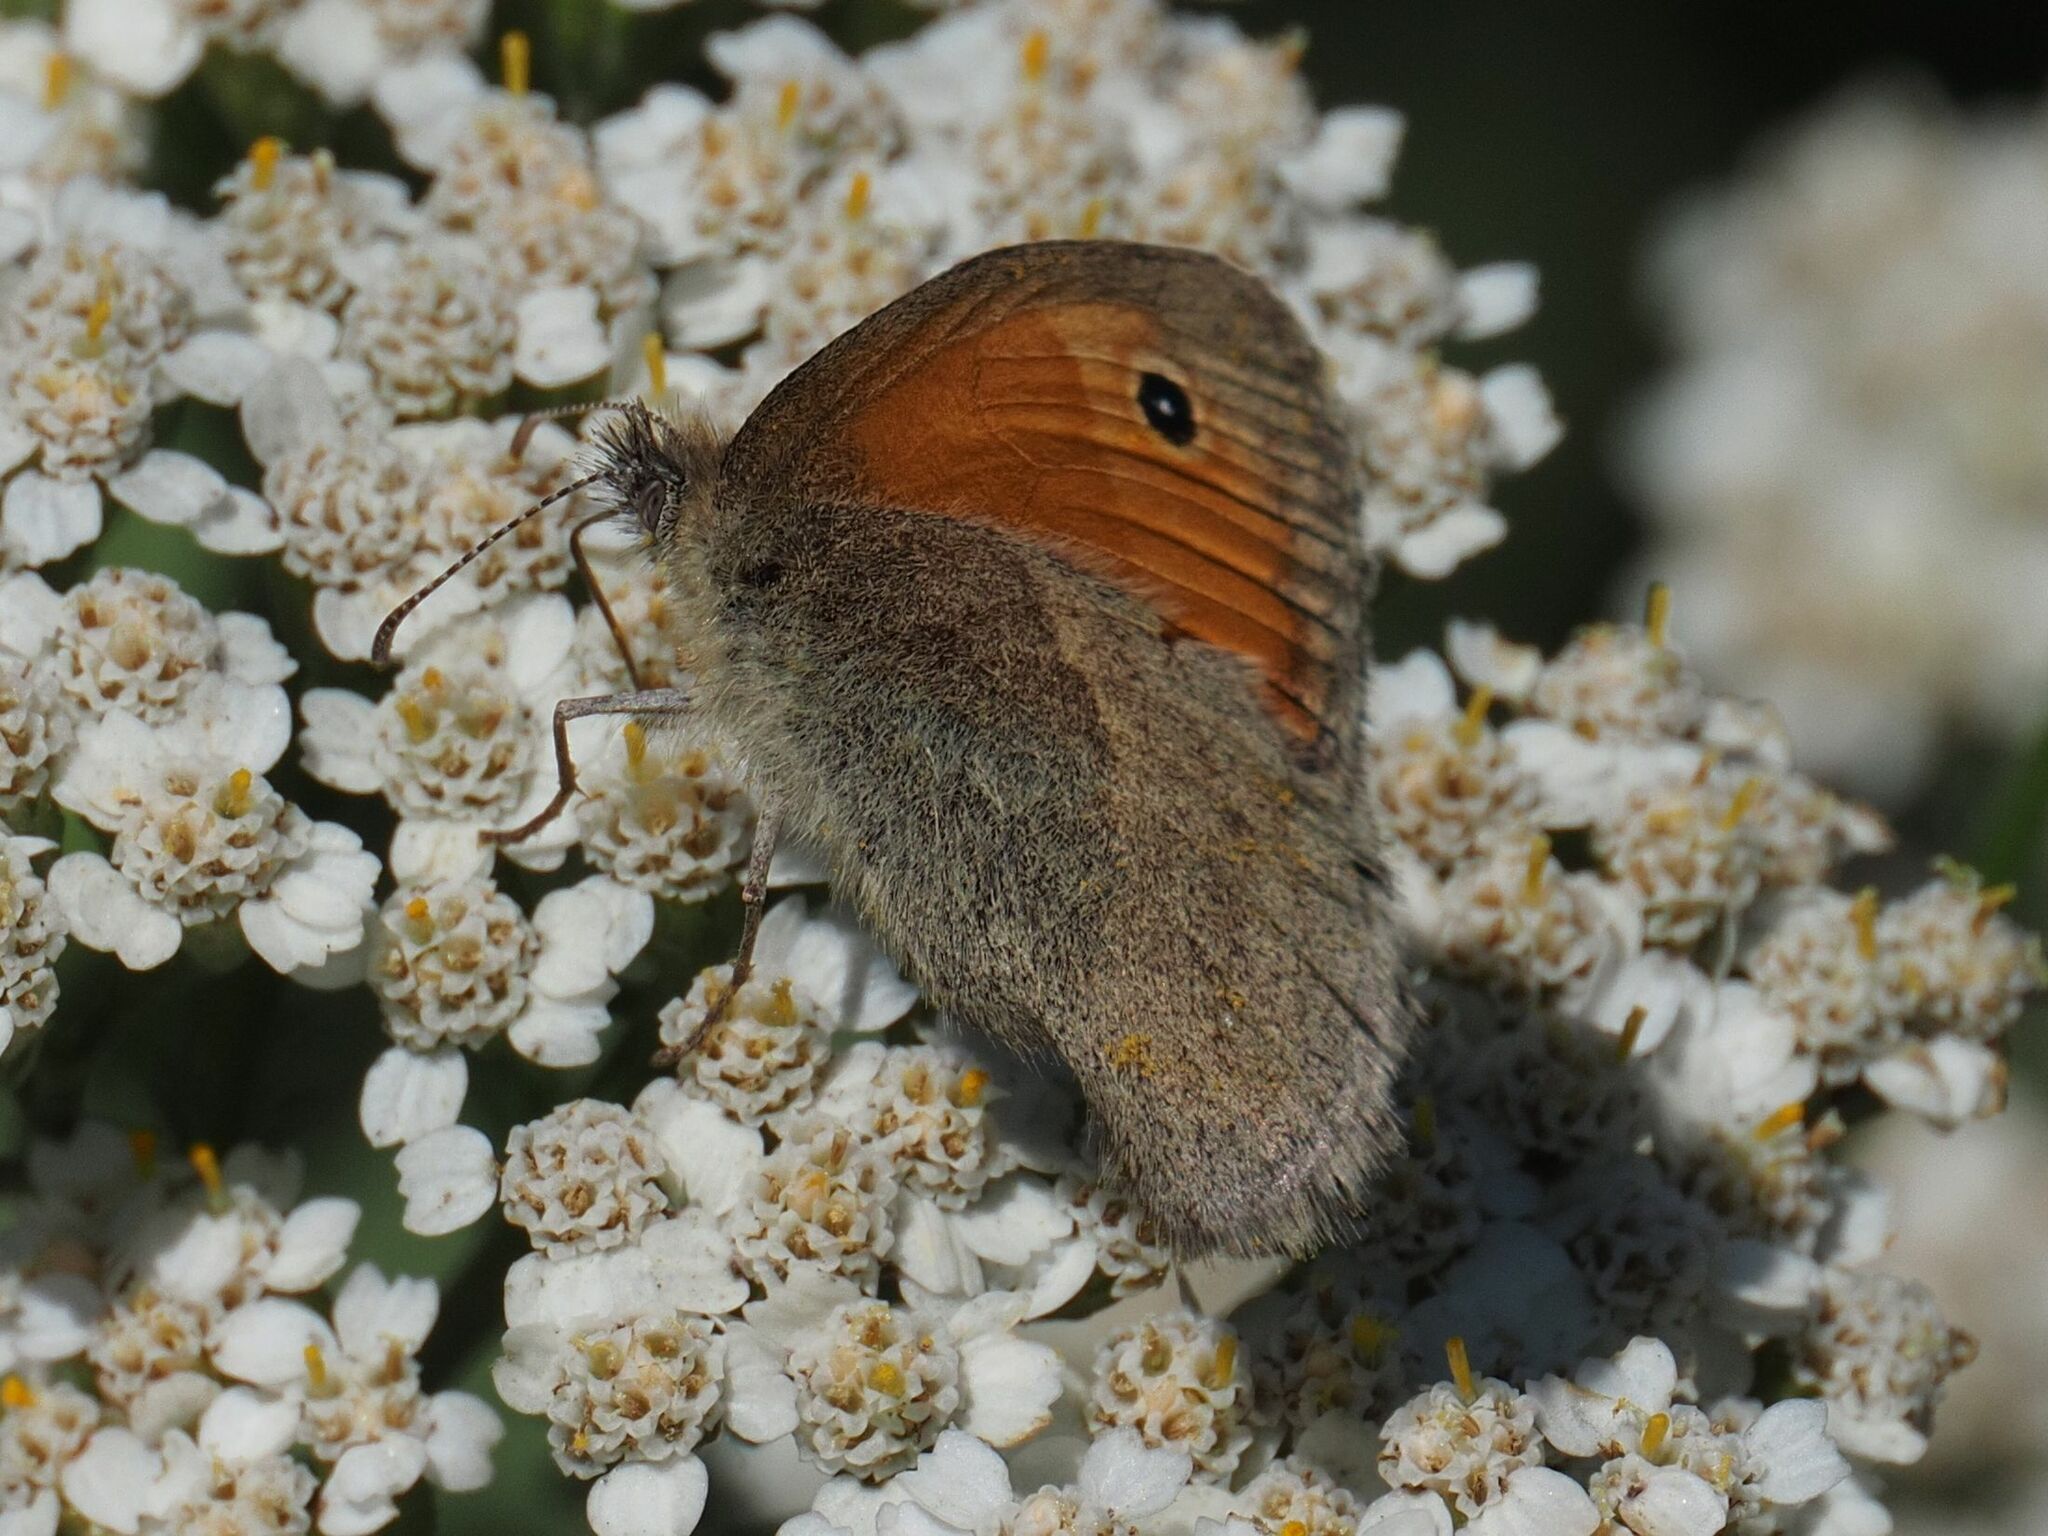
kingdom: Animalia
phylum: Arthropoda
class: Insecta
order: Lepidoptera
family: Nymphalidae
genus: Coenonympha
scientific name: Coenonympha pamphilus
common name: Small heath
